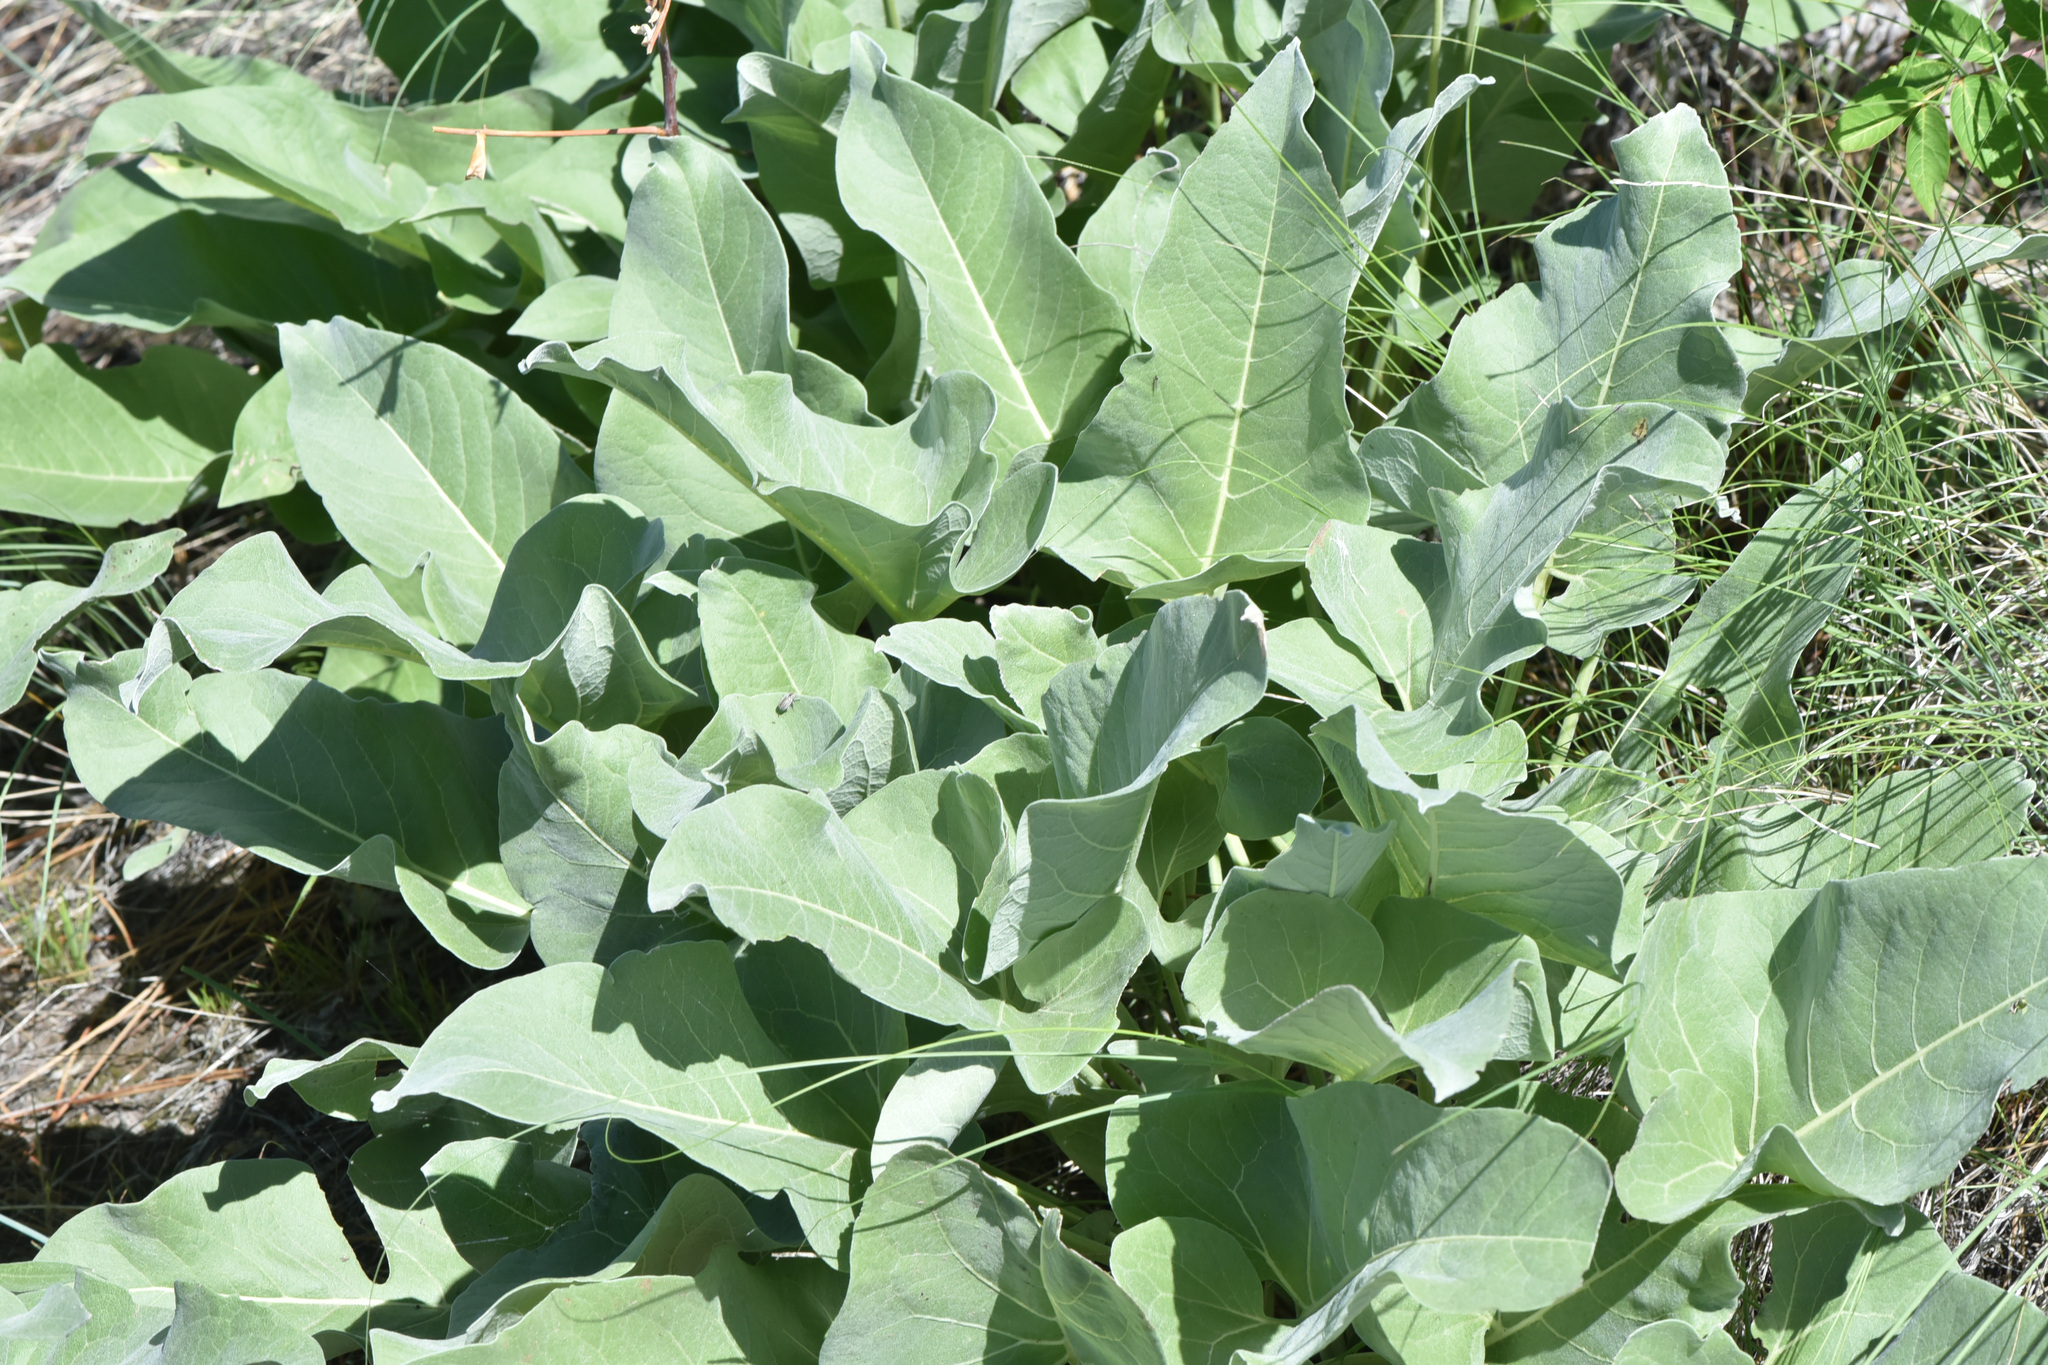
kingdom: Plantae
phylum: Tracheophyta
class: Magnoliopsida
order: Asterales
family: Asteraceae
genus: Wyethia
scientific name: Wyethia sagittata
